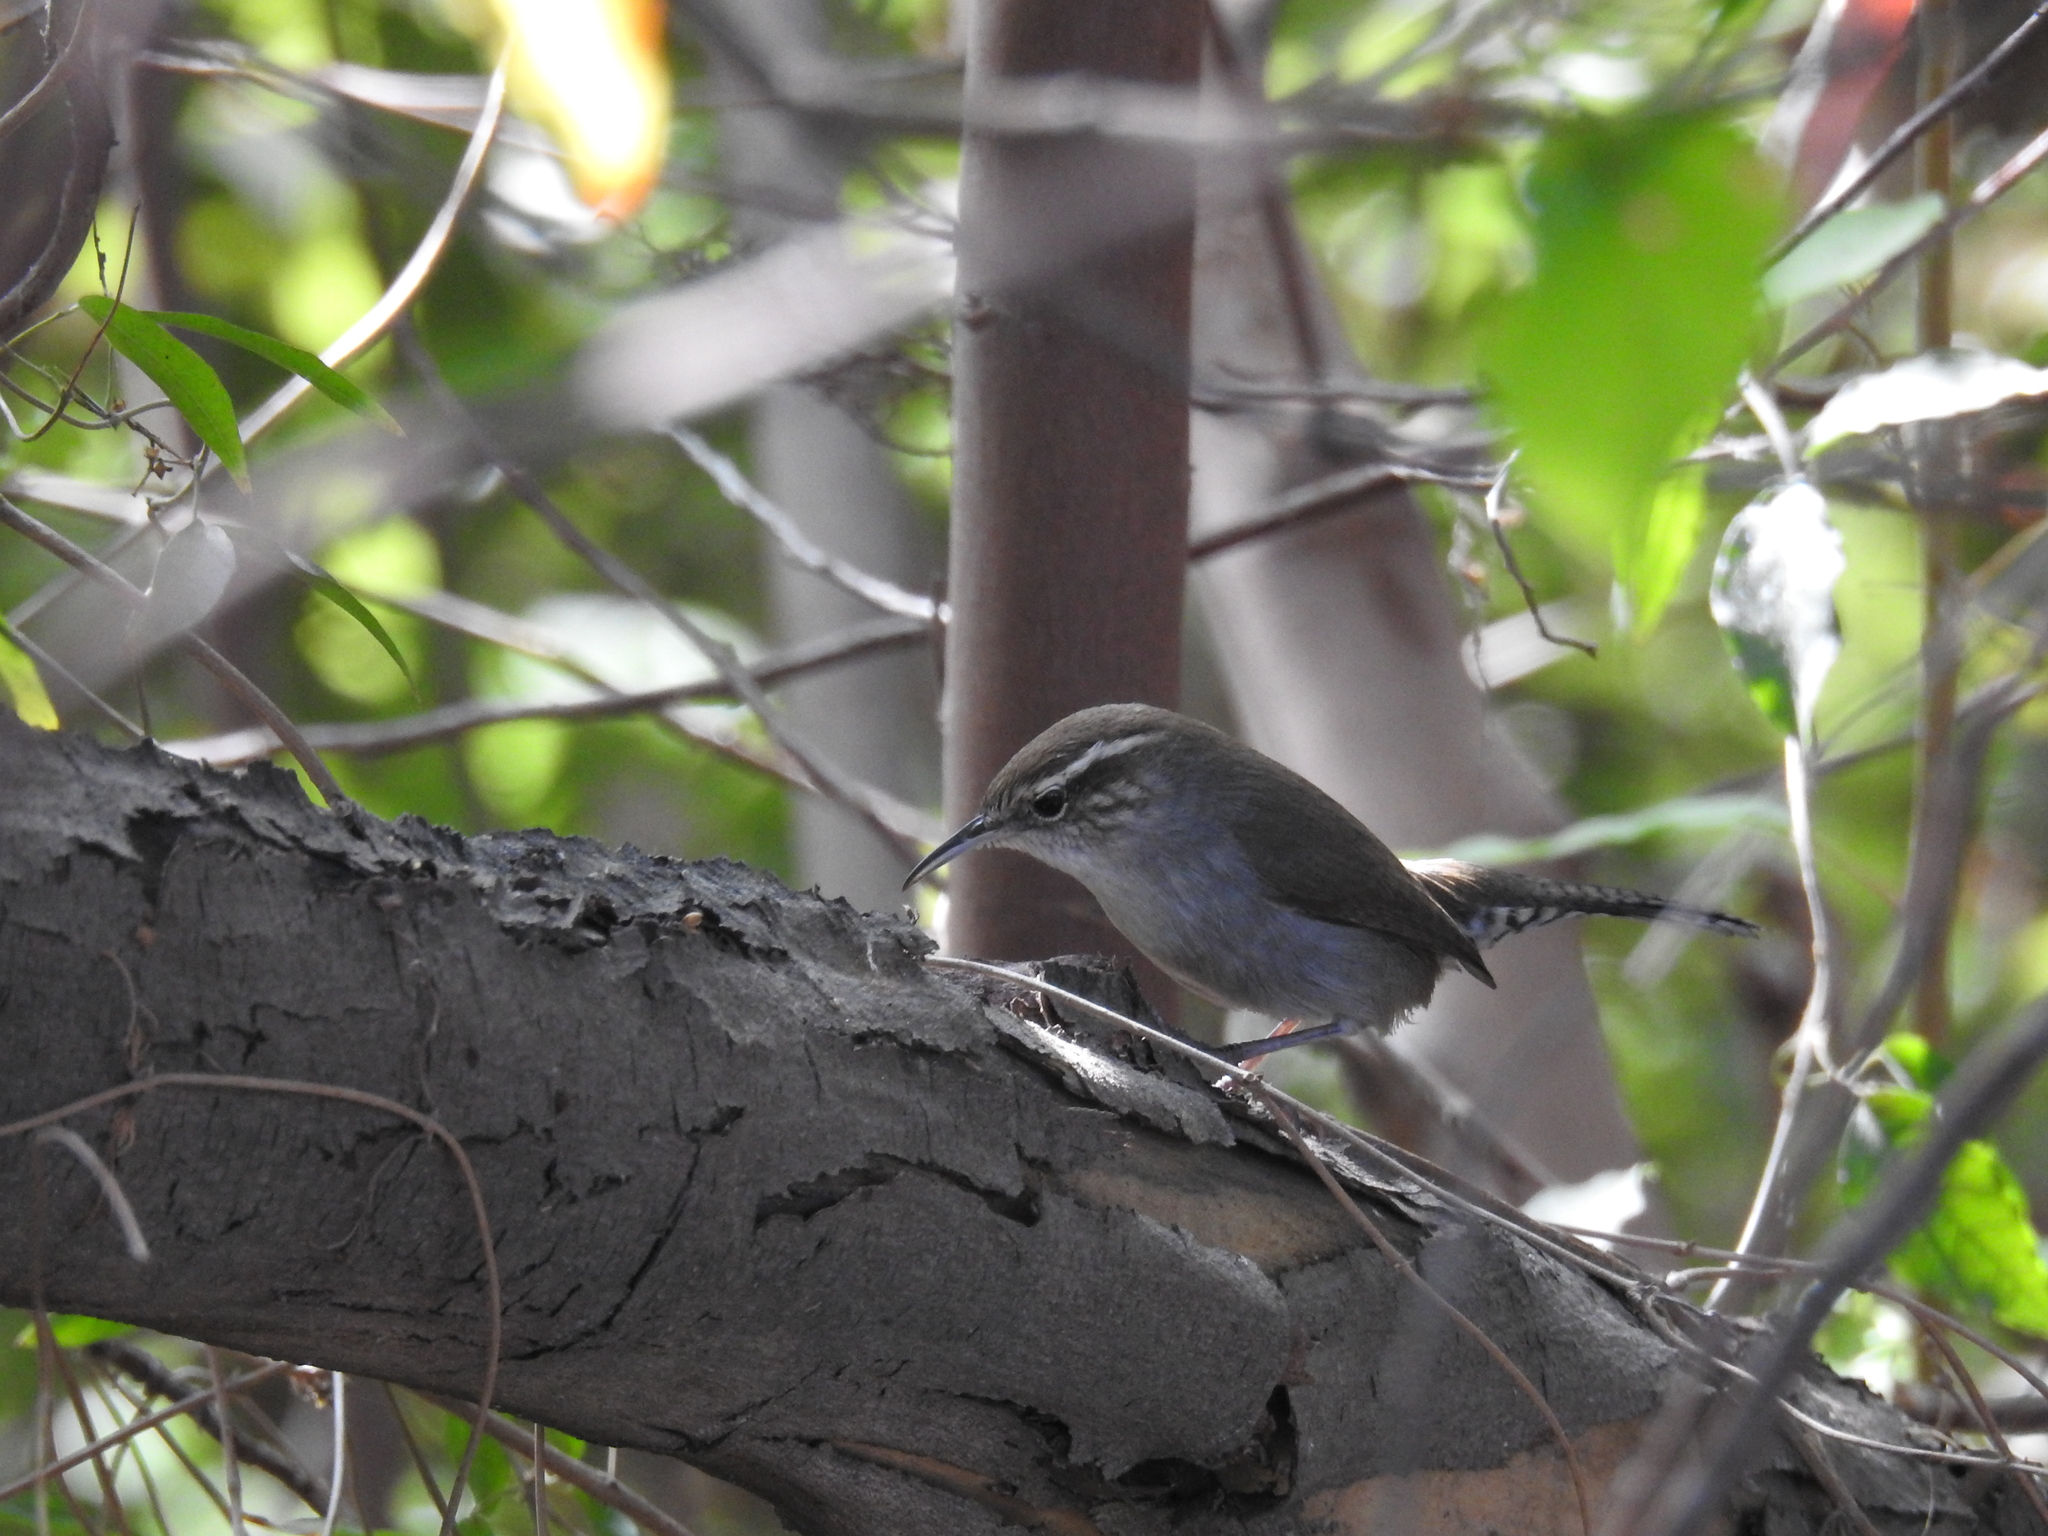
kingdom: Animalia
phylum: Chordata
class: Aves
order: Passeriformes
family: Troglodytidae
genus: Thryomanes
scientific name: Thryomanes bewickii
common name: Bewick's wren
